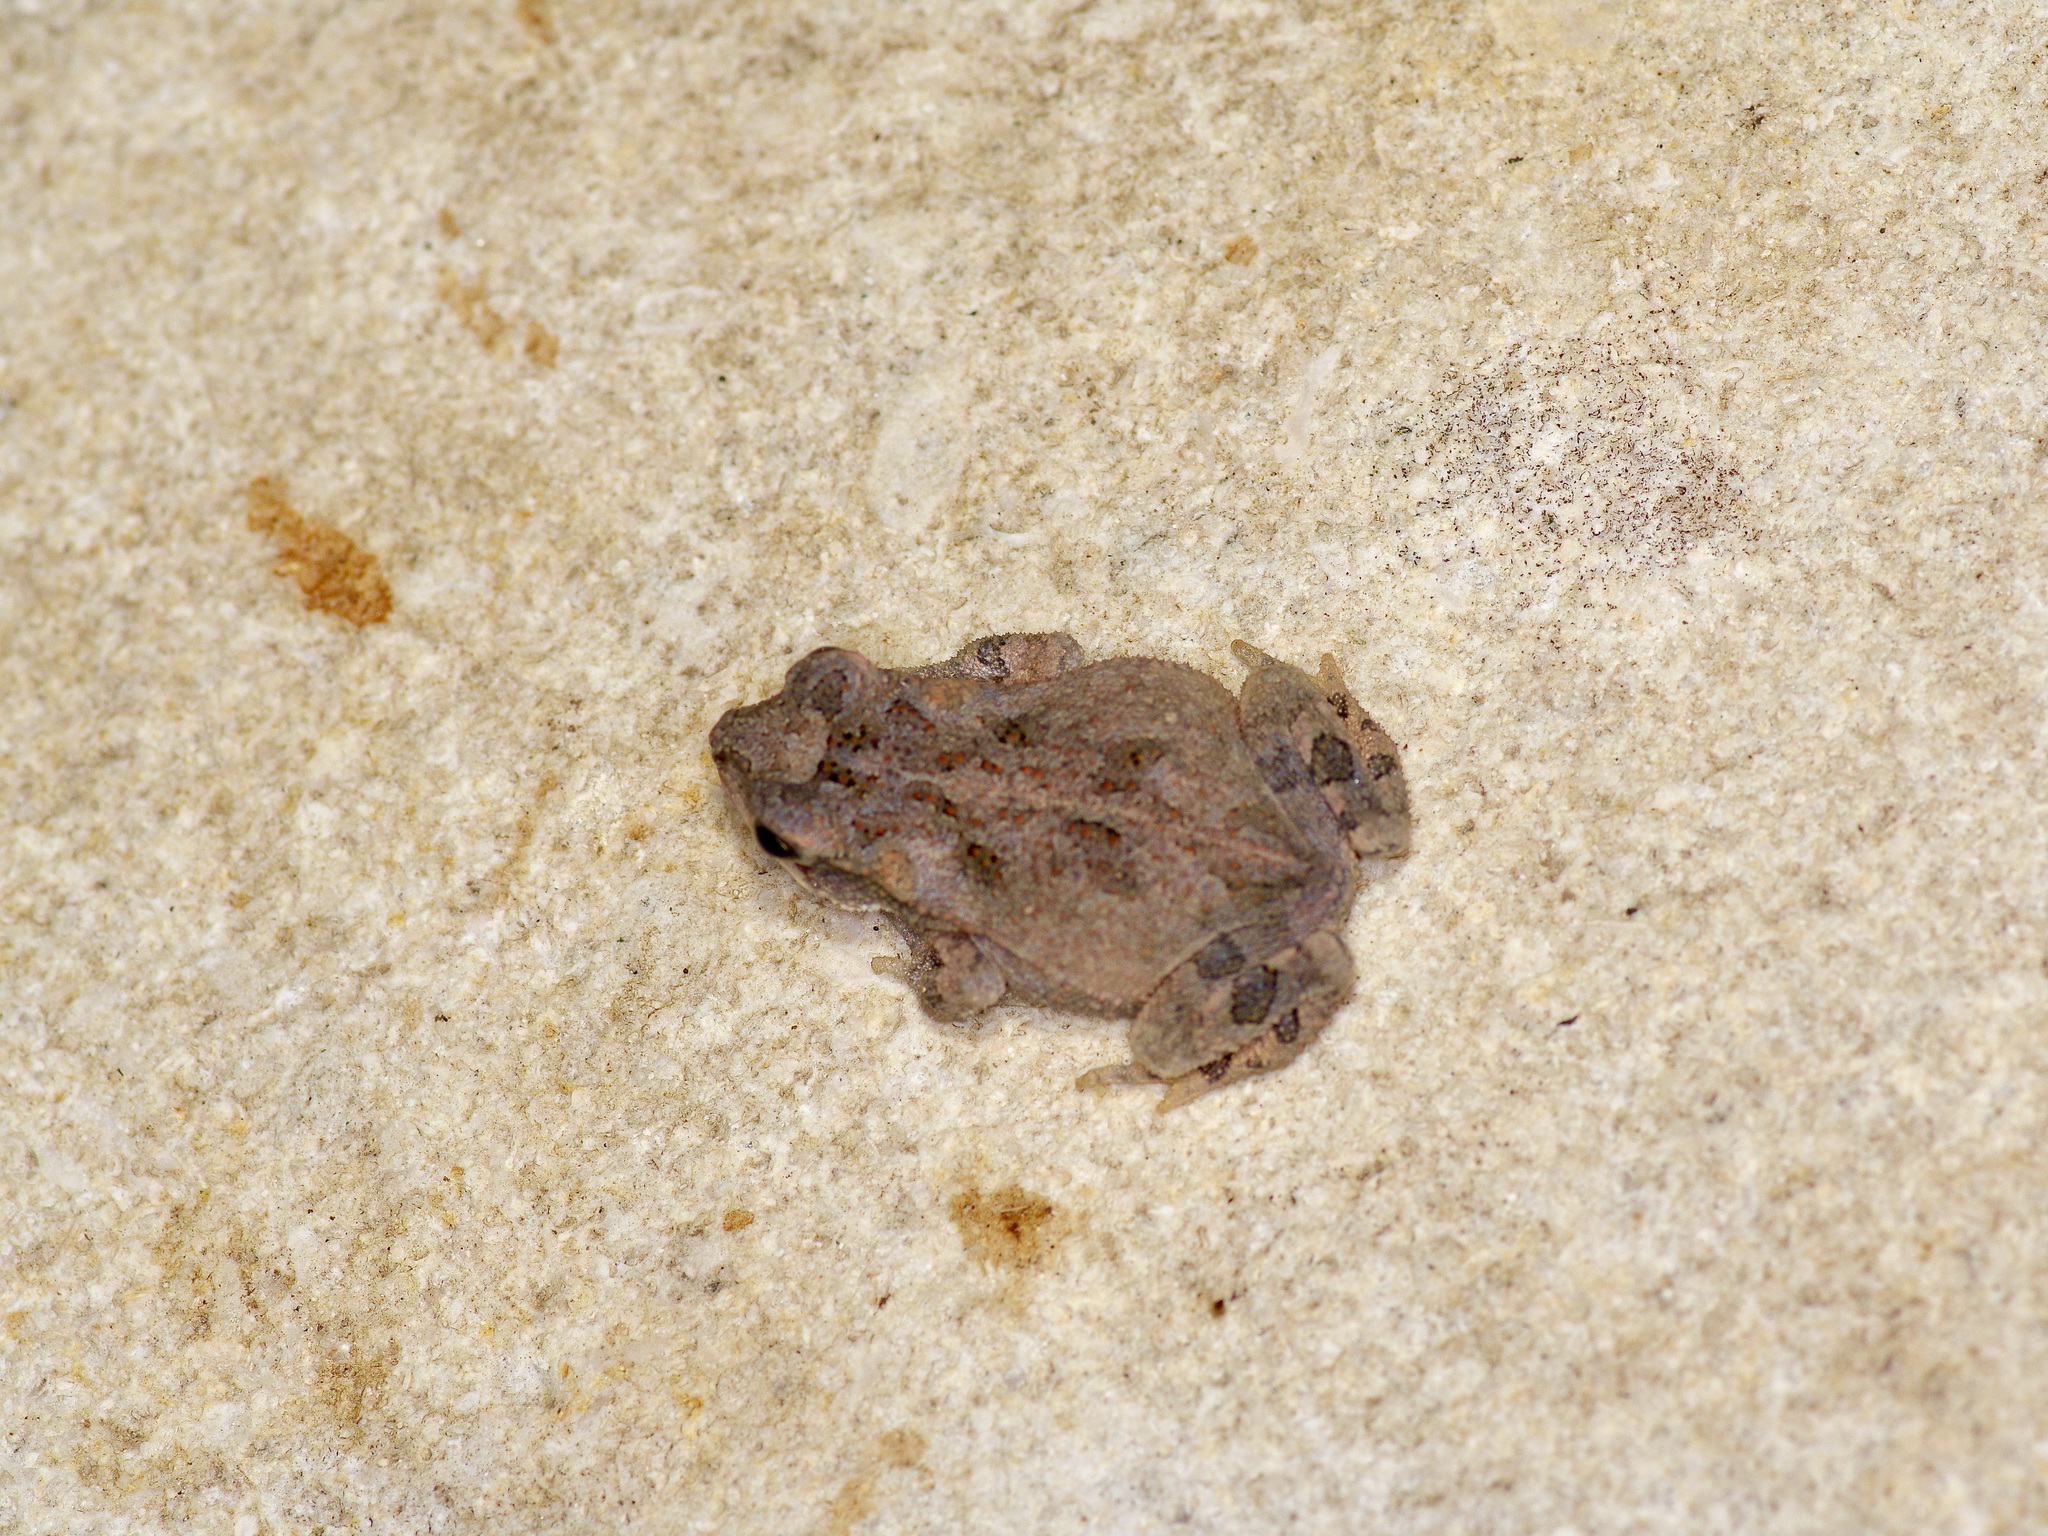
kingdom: Animalia
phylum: Chordata
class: Amphibia
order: Anura
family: Bufonidae
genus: Incilius
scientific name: Incilius nebulifer
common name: Gulf coast toad
